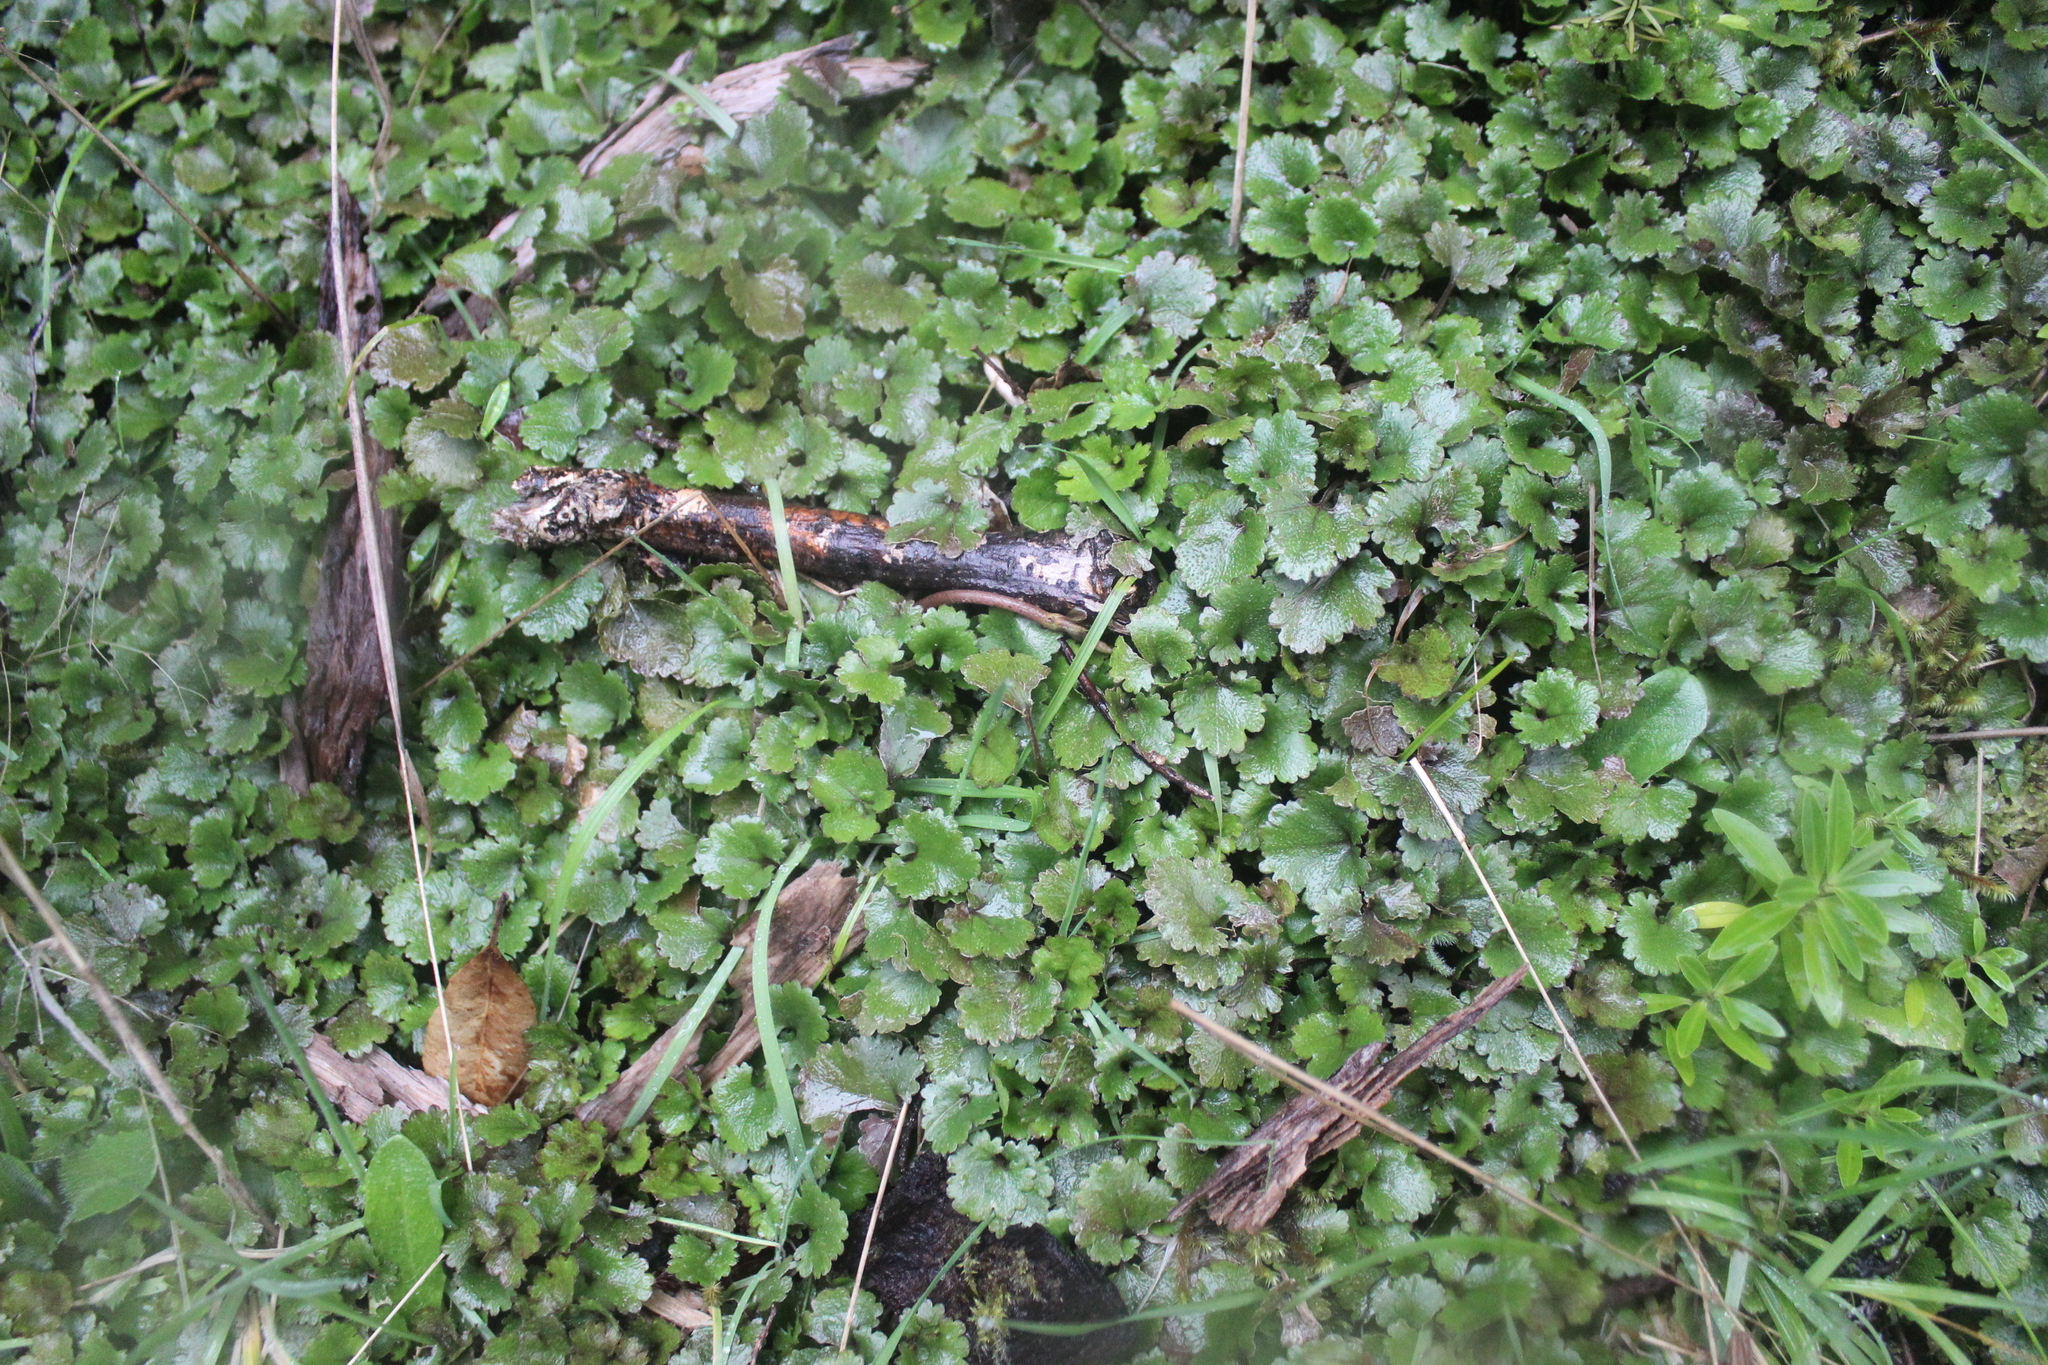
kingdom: Plantae
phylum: Tracheophyta
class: Magnoliopsida
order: Gunnerales
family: Gunneraceae
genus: Gunnera
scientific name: Gunnera monoica
